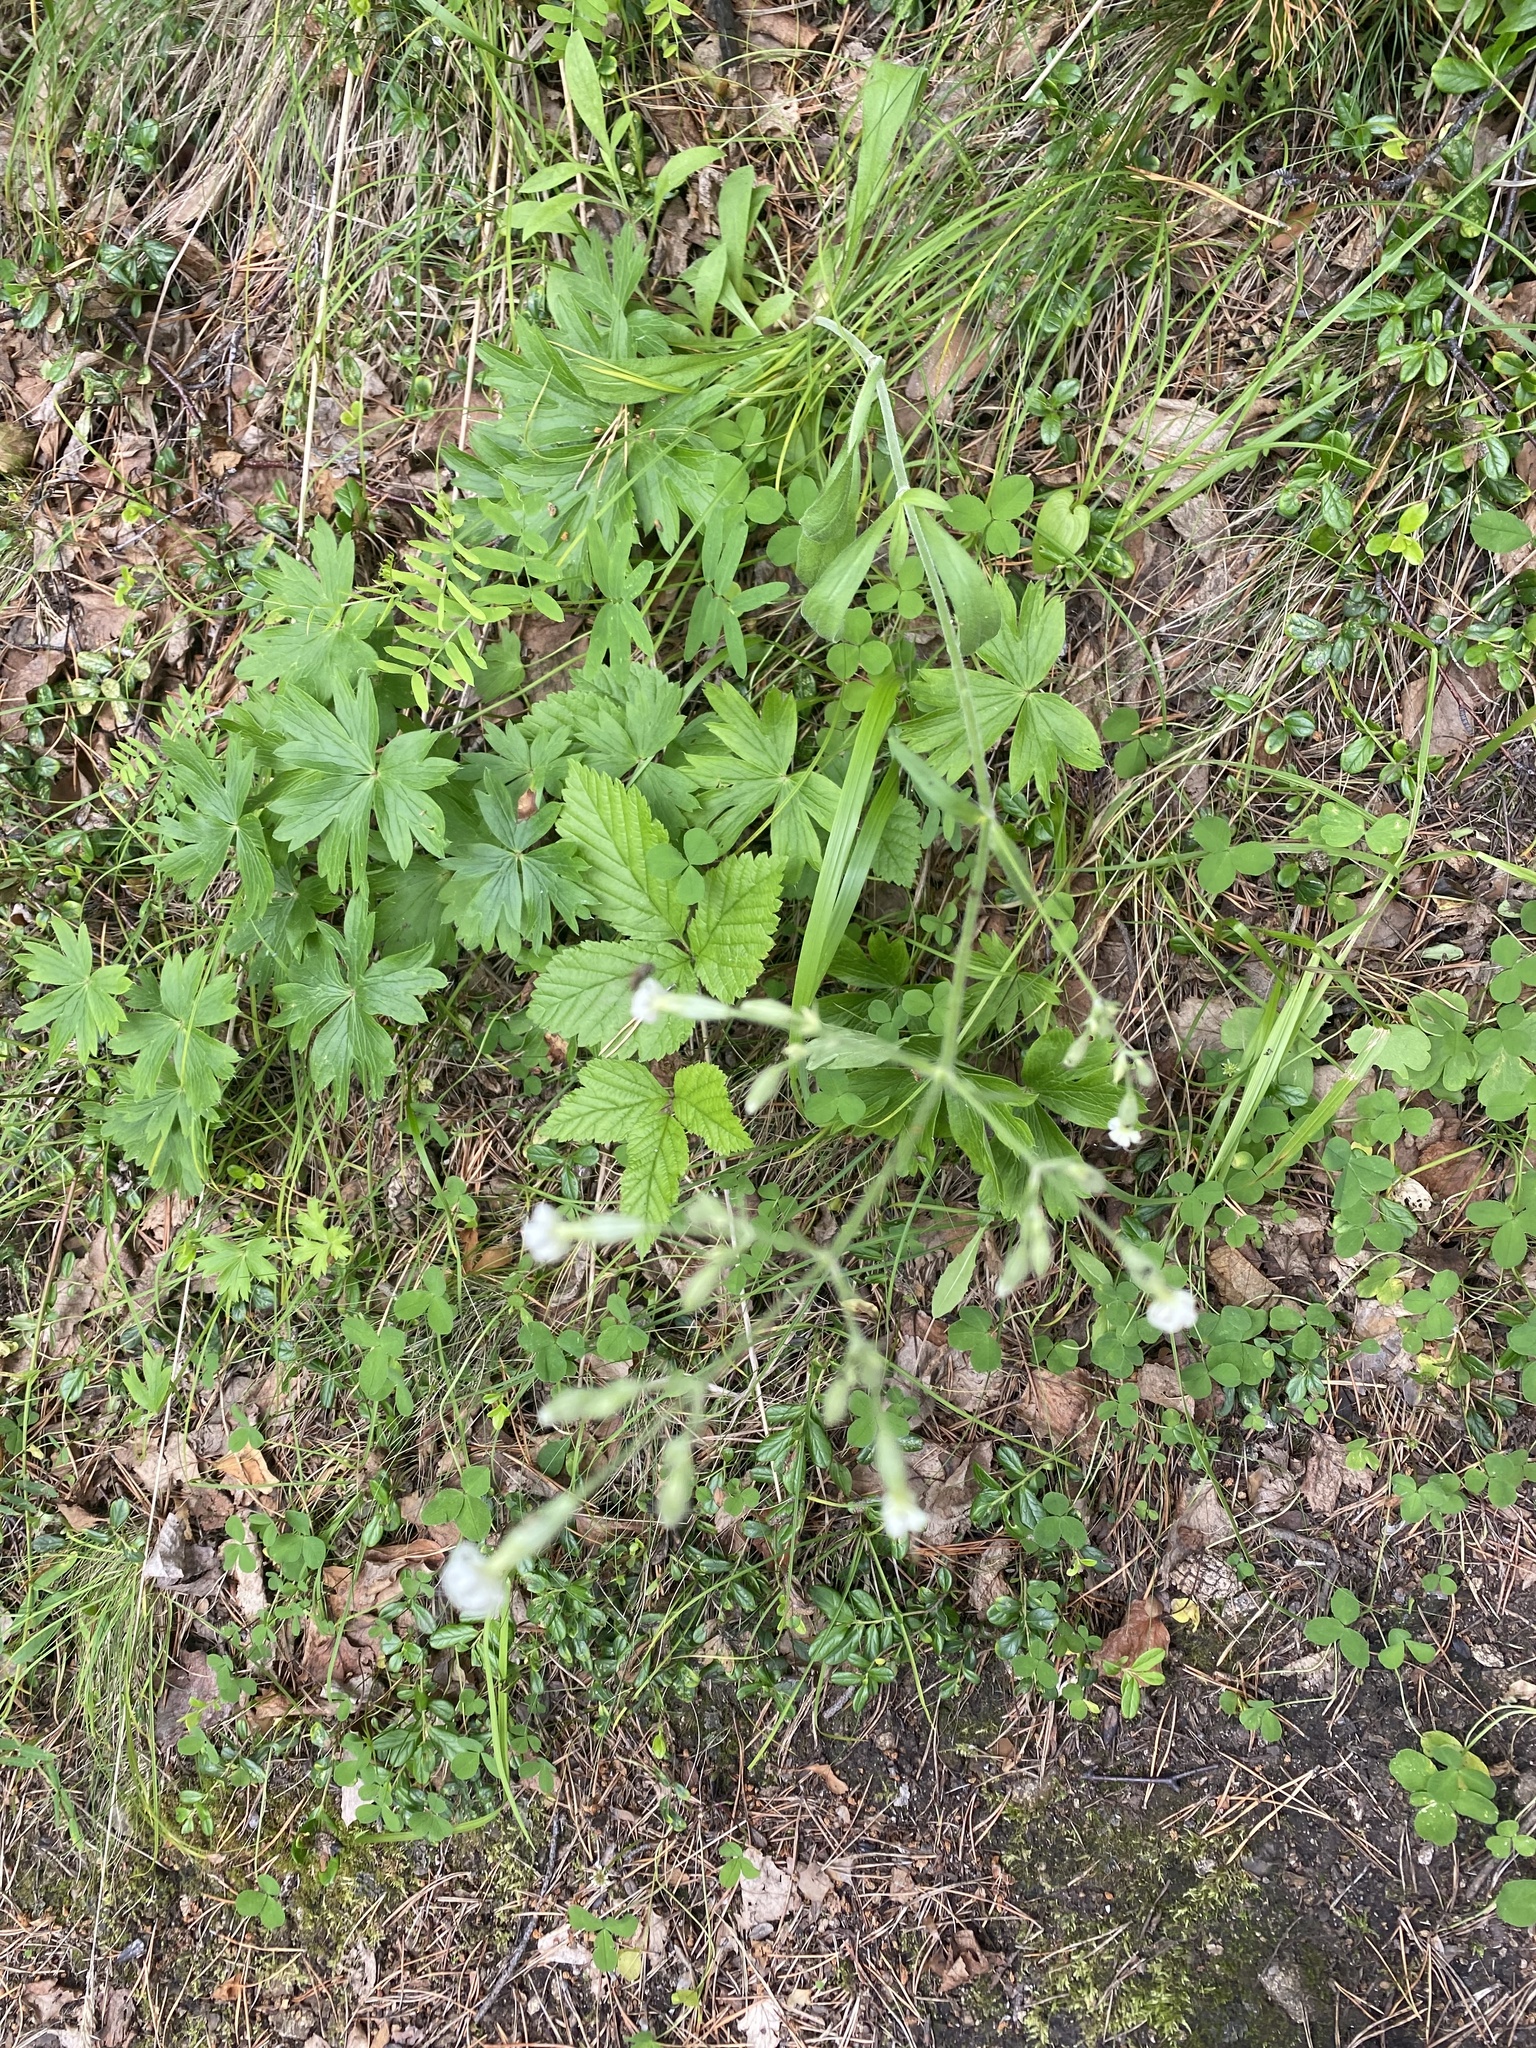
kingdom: Plantae
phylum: Tracheophyta
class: Magnoliopsida
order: Caryophyllales
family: Caryophyllaceae
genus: Silene
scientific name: Silene nutans
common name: Nottingham catchfly
